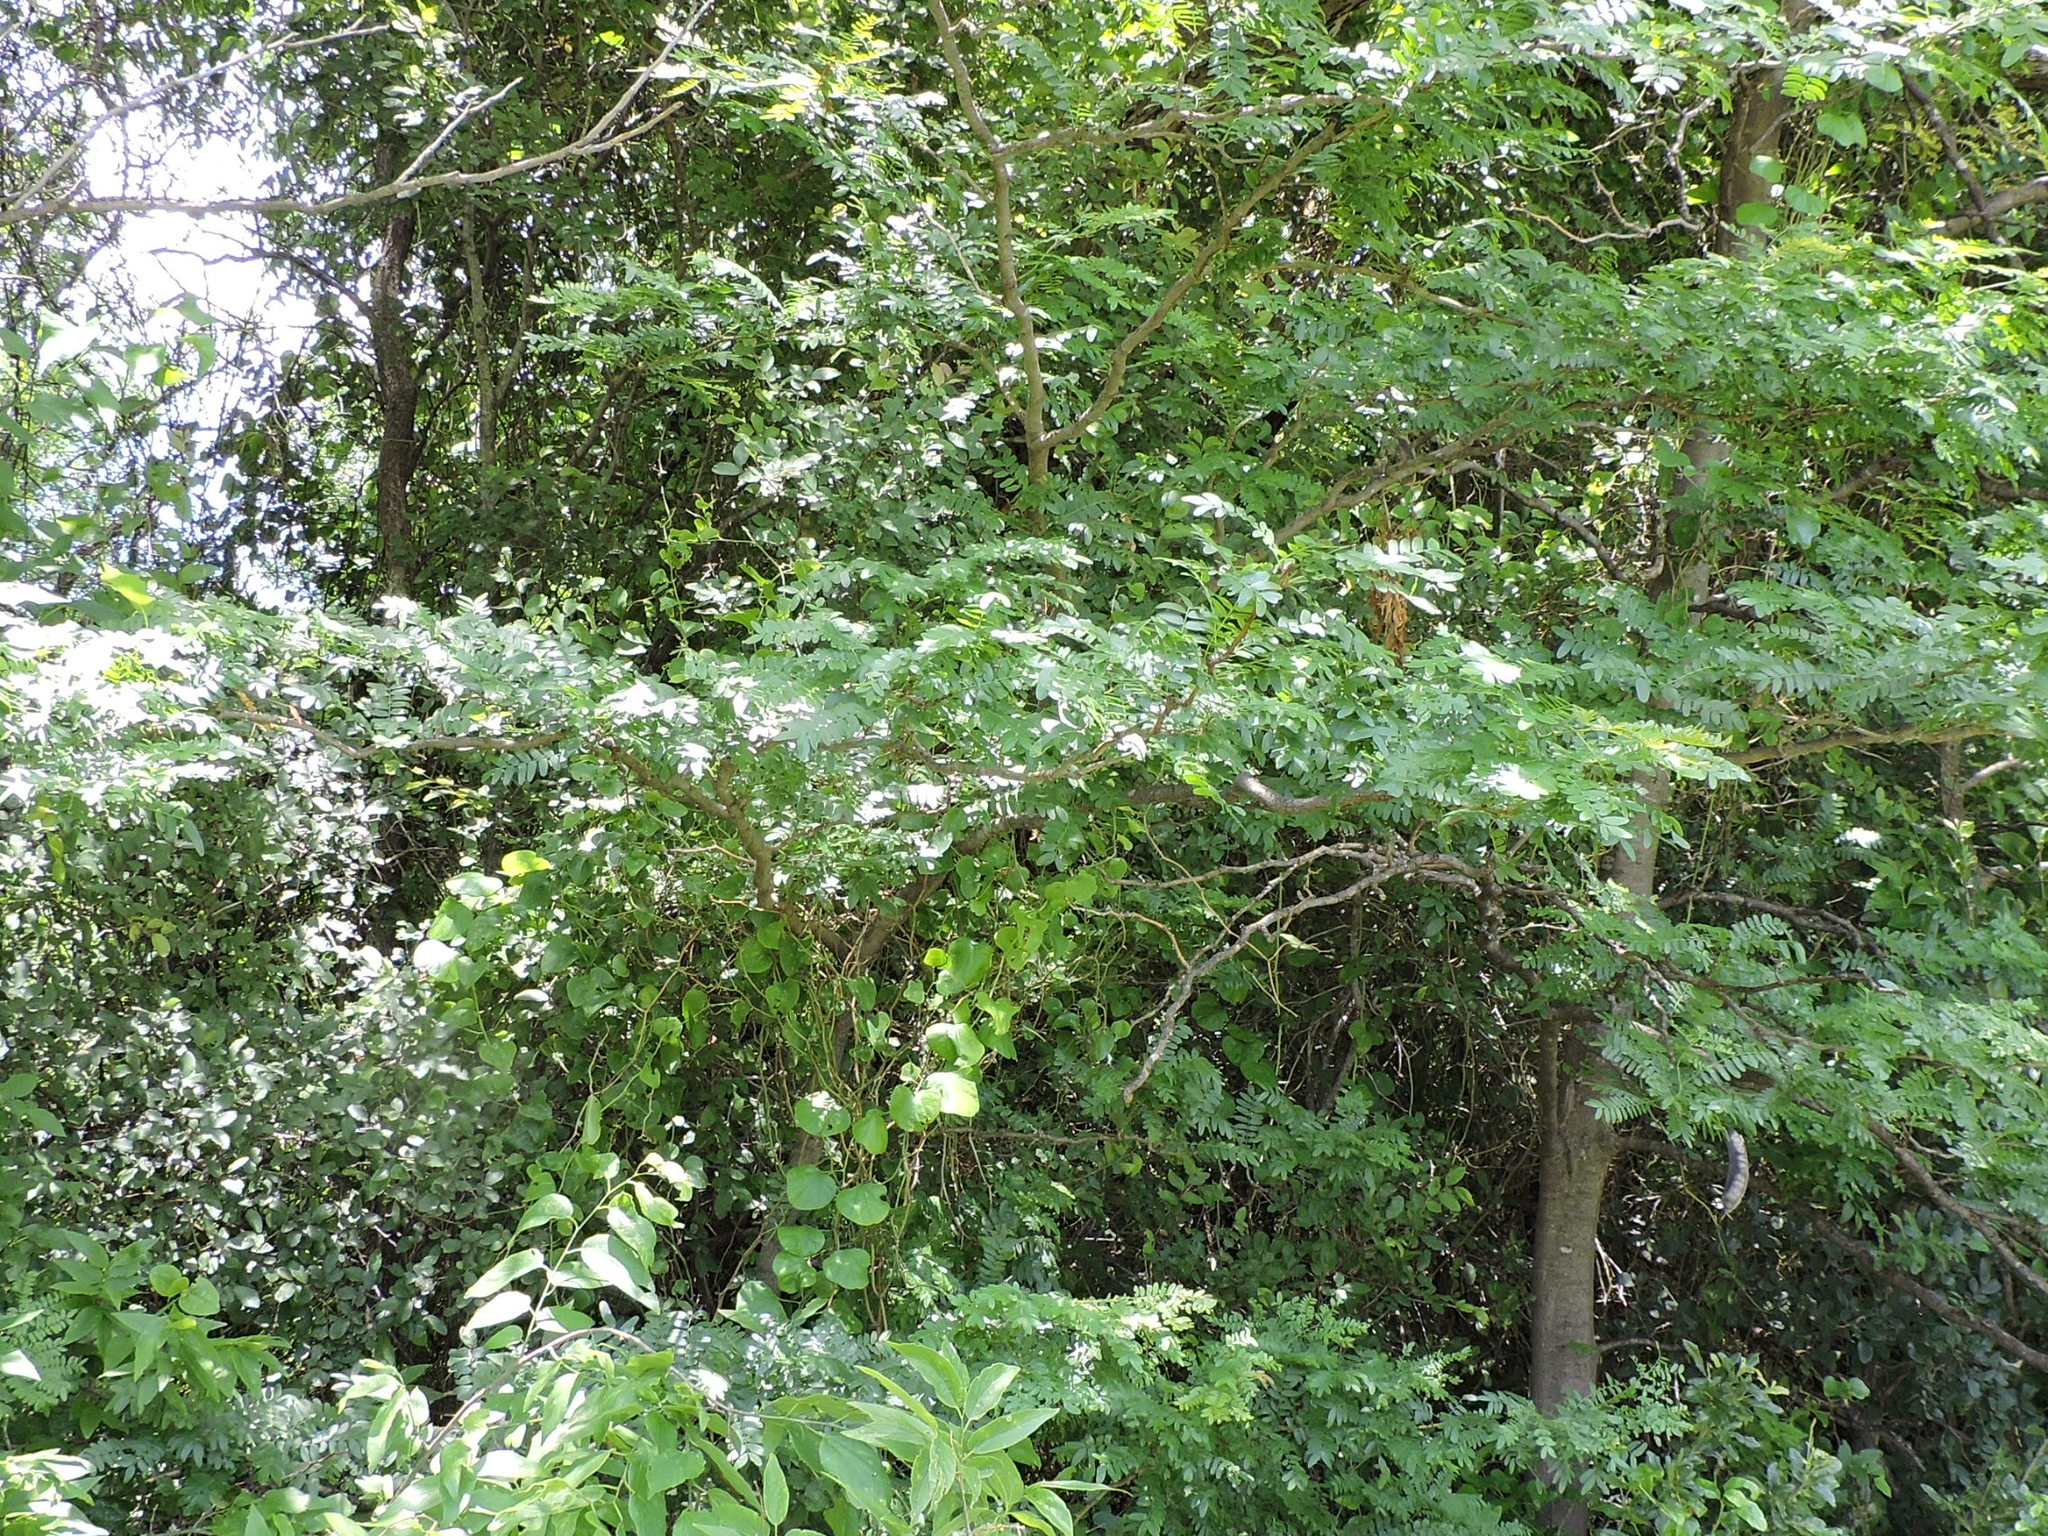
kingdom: Plantae
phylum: Tracheophyta
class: Magnoliopsida
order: Fabales
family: Fabaceae
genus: Robinia
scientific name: Robinia pseudoacacia
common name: Black locust
